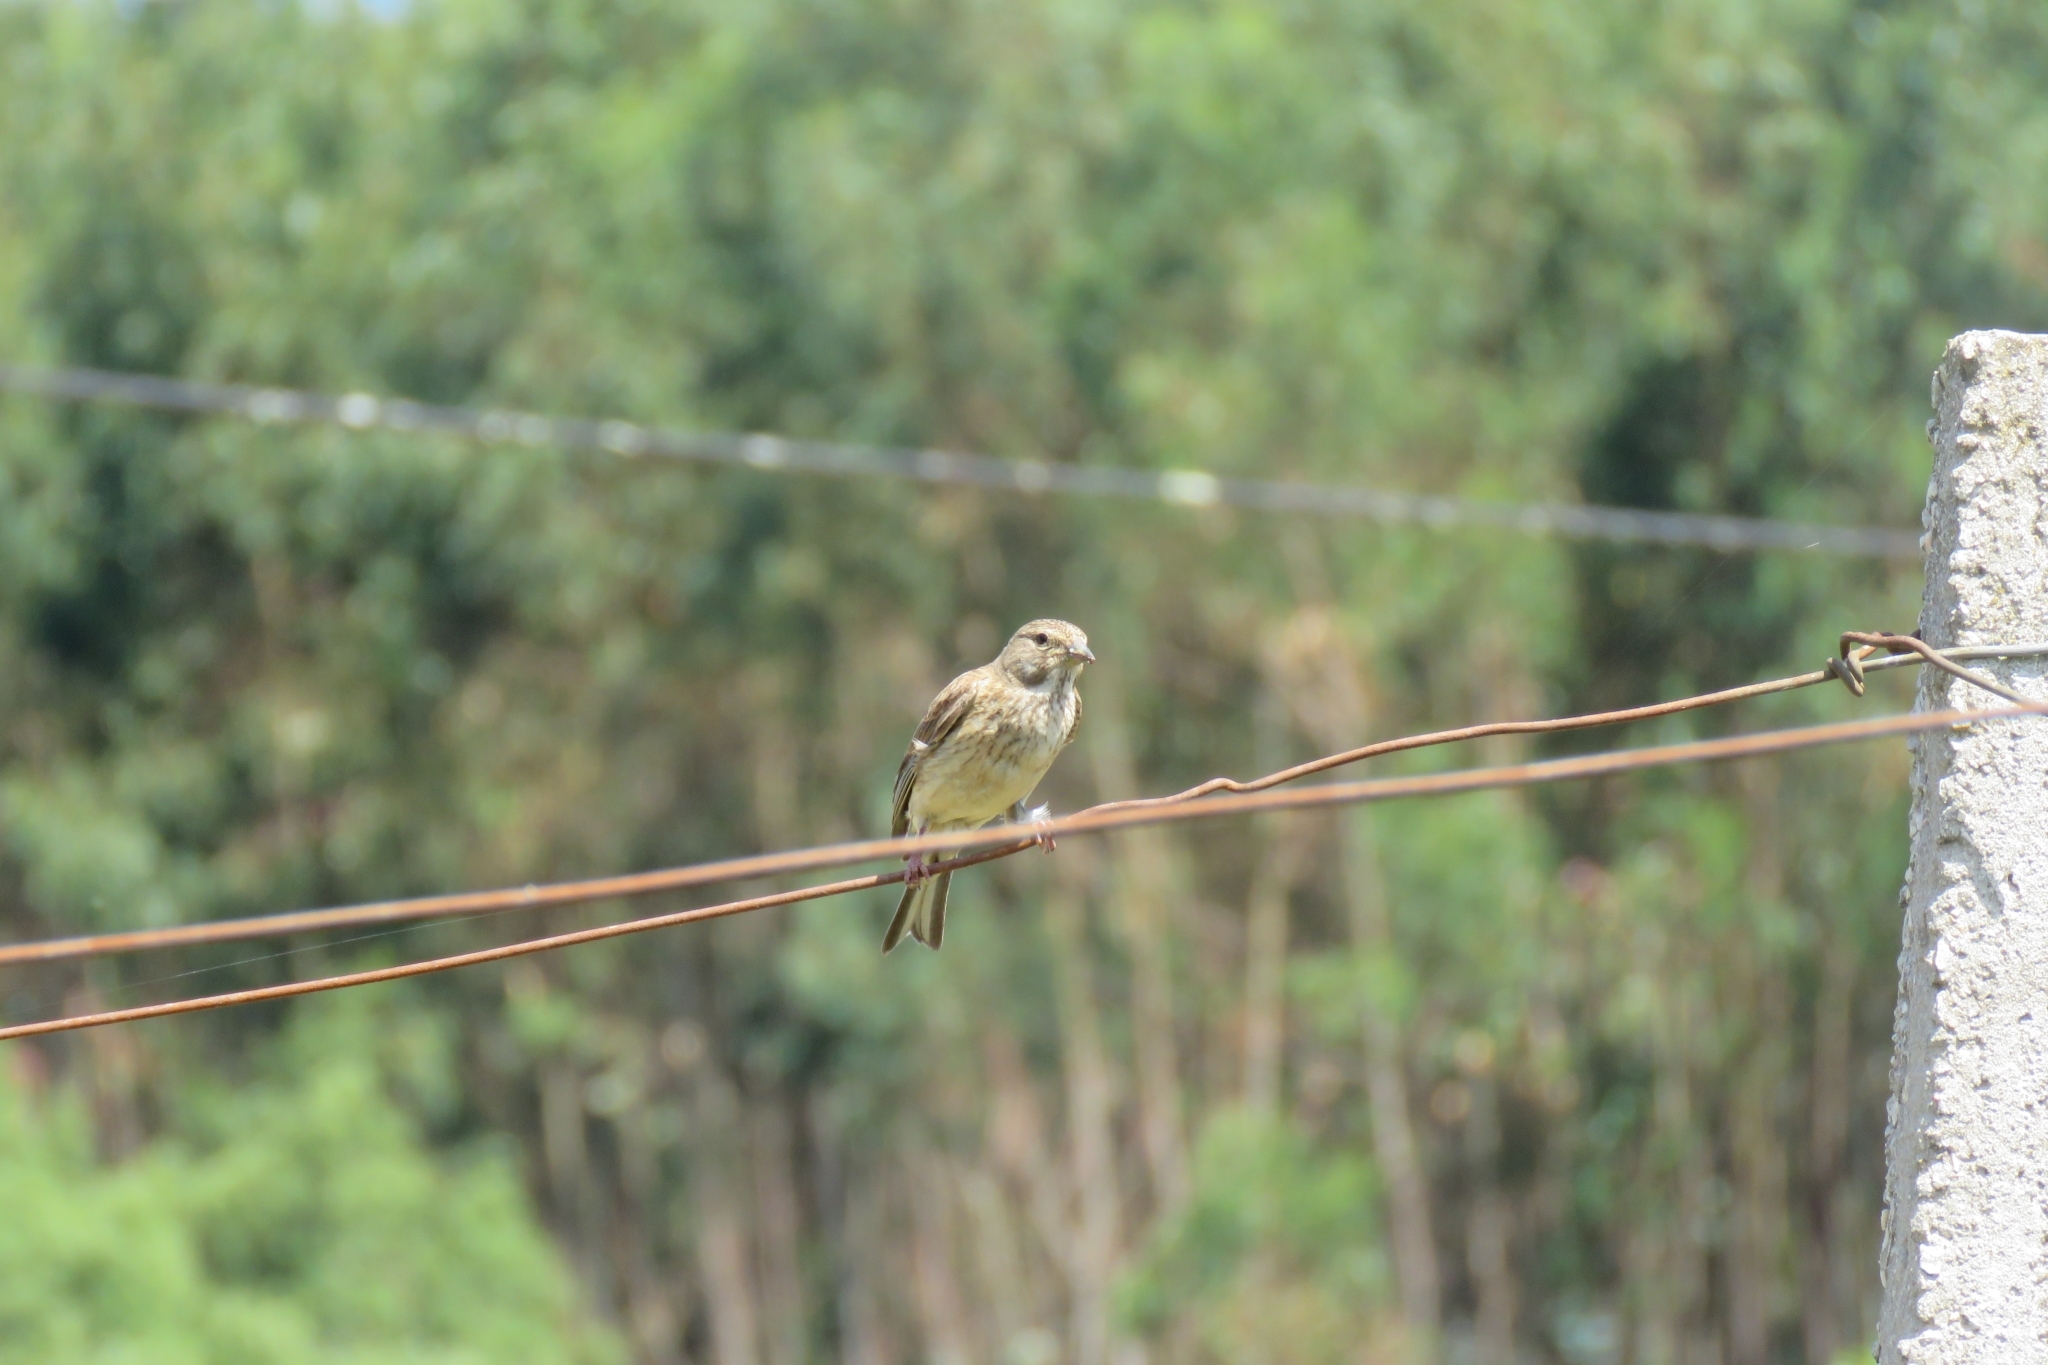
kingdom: Animalia
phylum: Chordata
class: Aves
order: Passeriformes
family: Fringillidae
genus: Linaria
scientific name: Linaria cannabina
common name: Common linnet
